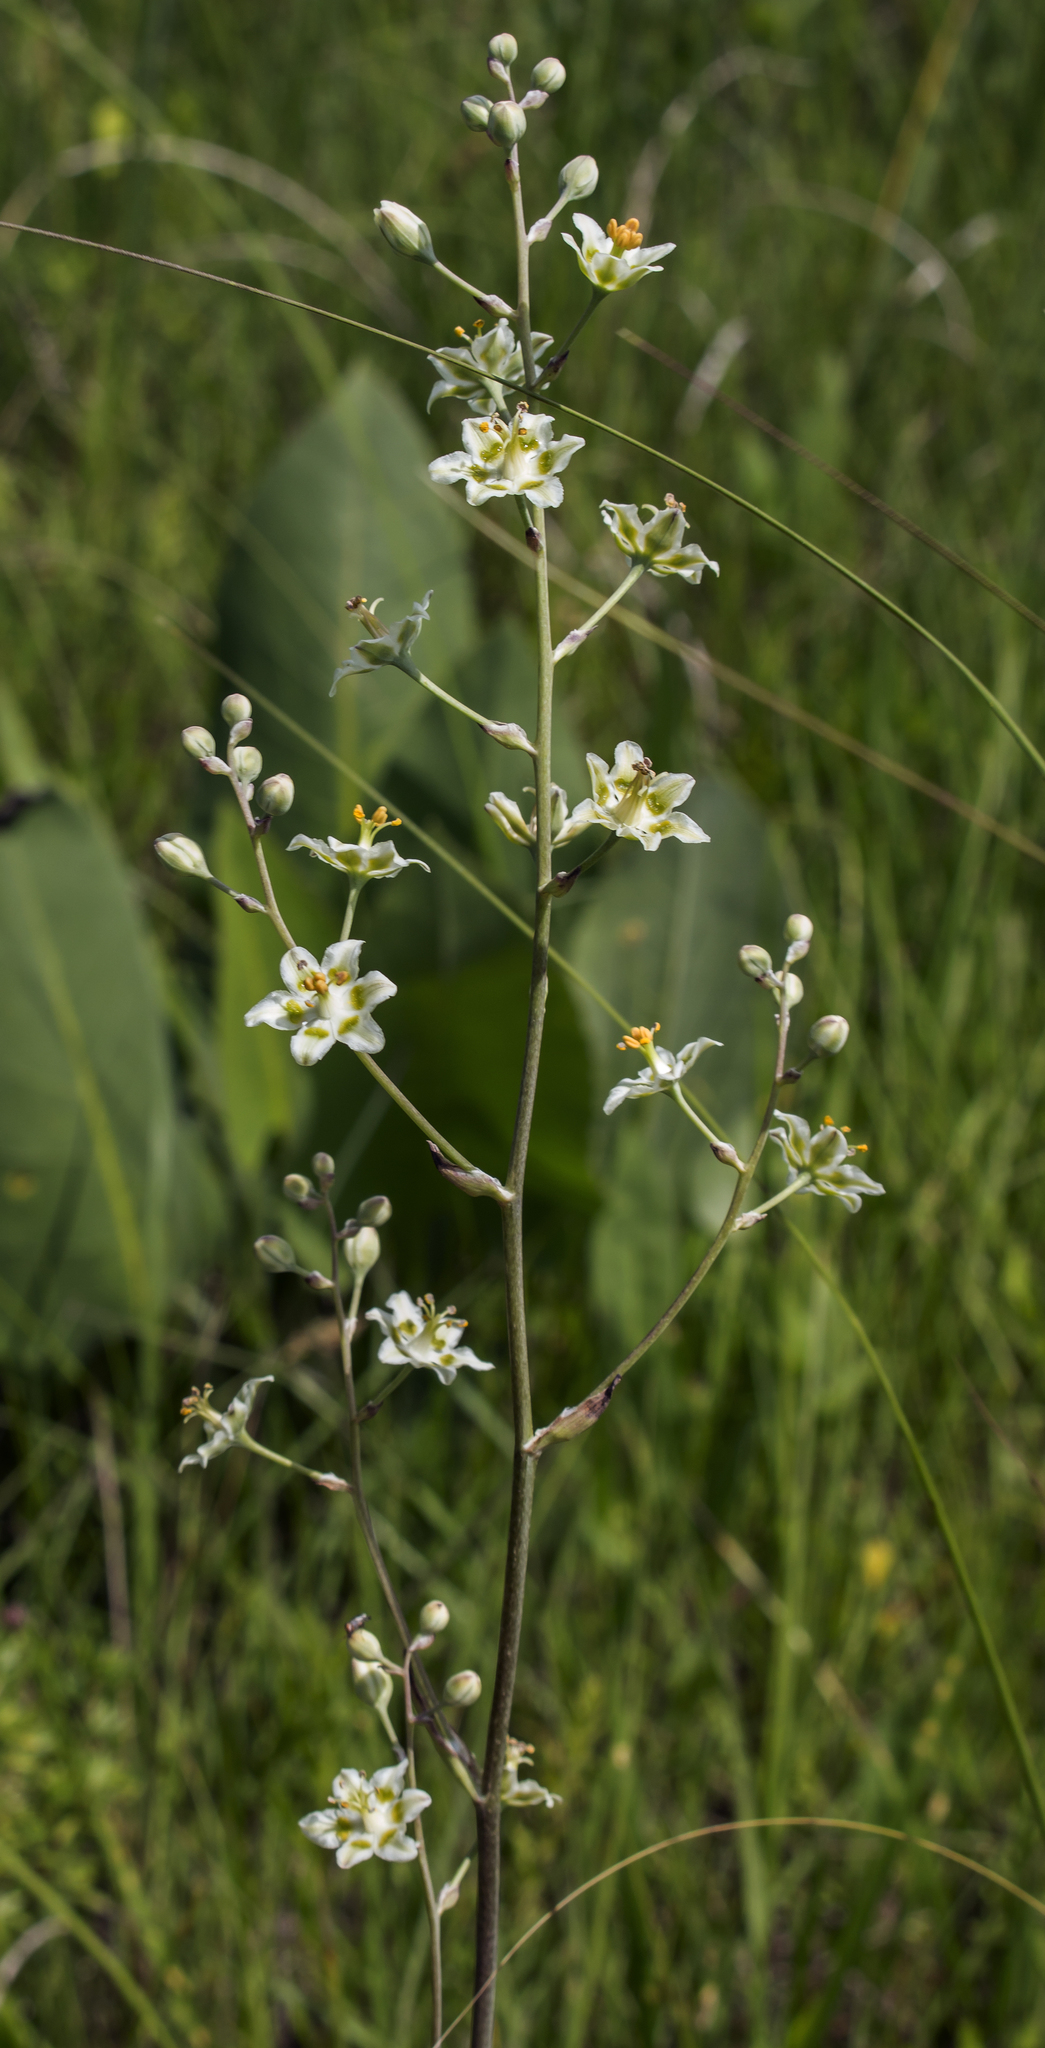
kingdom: Plantae
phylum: Tracheophyta
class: Liliopsida
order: Liliales
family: Melanthiaceae
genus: Anticlea
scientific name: Anticlea elegans
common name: Mountain death camas
